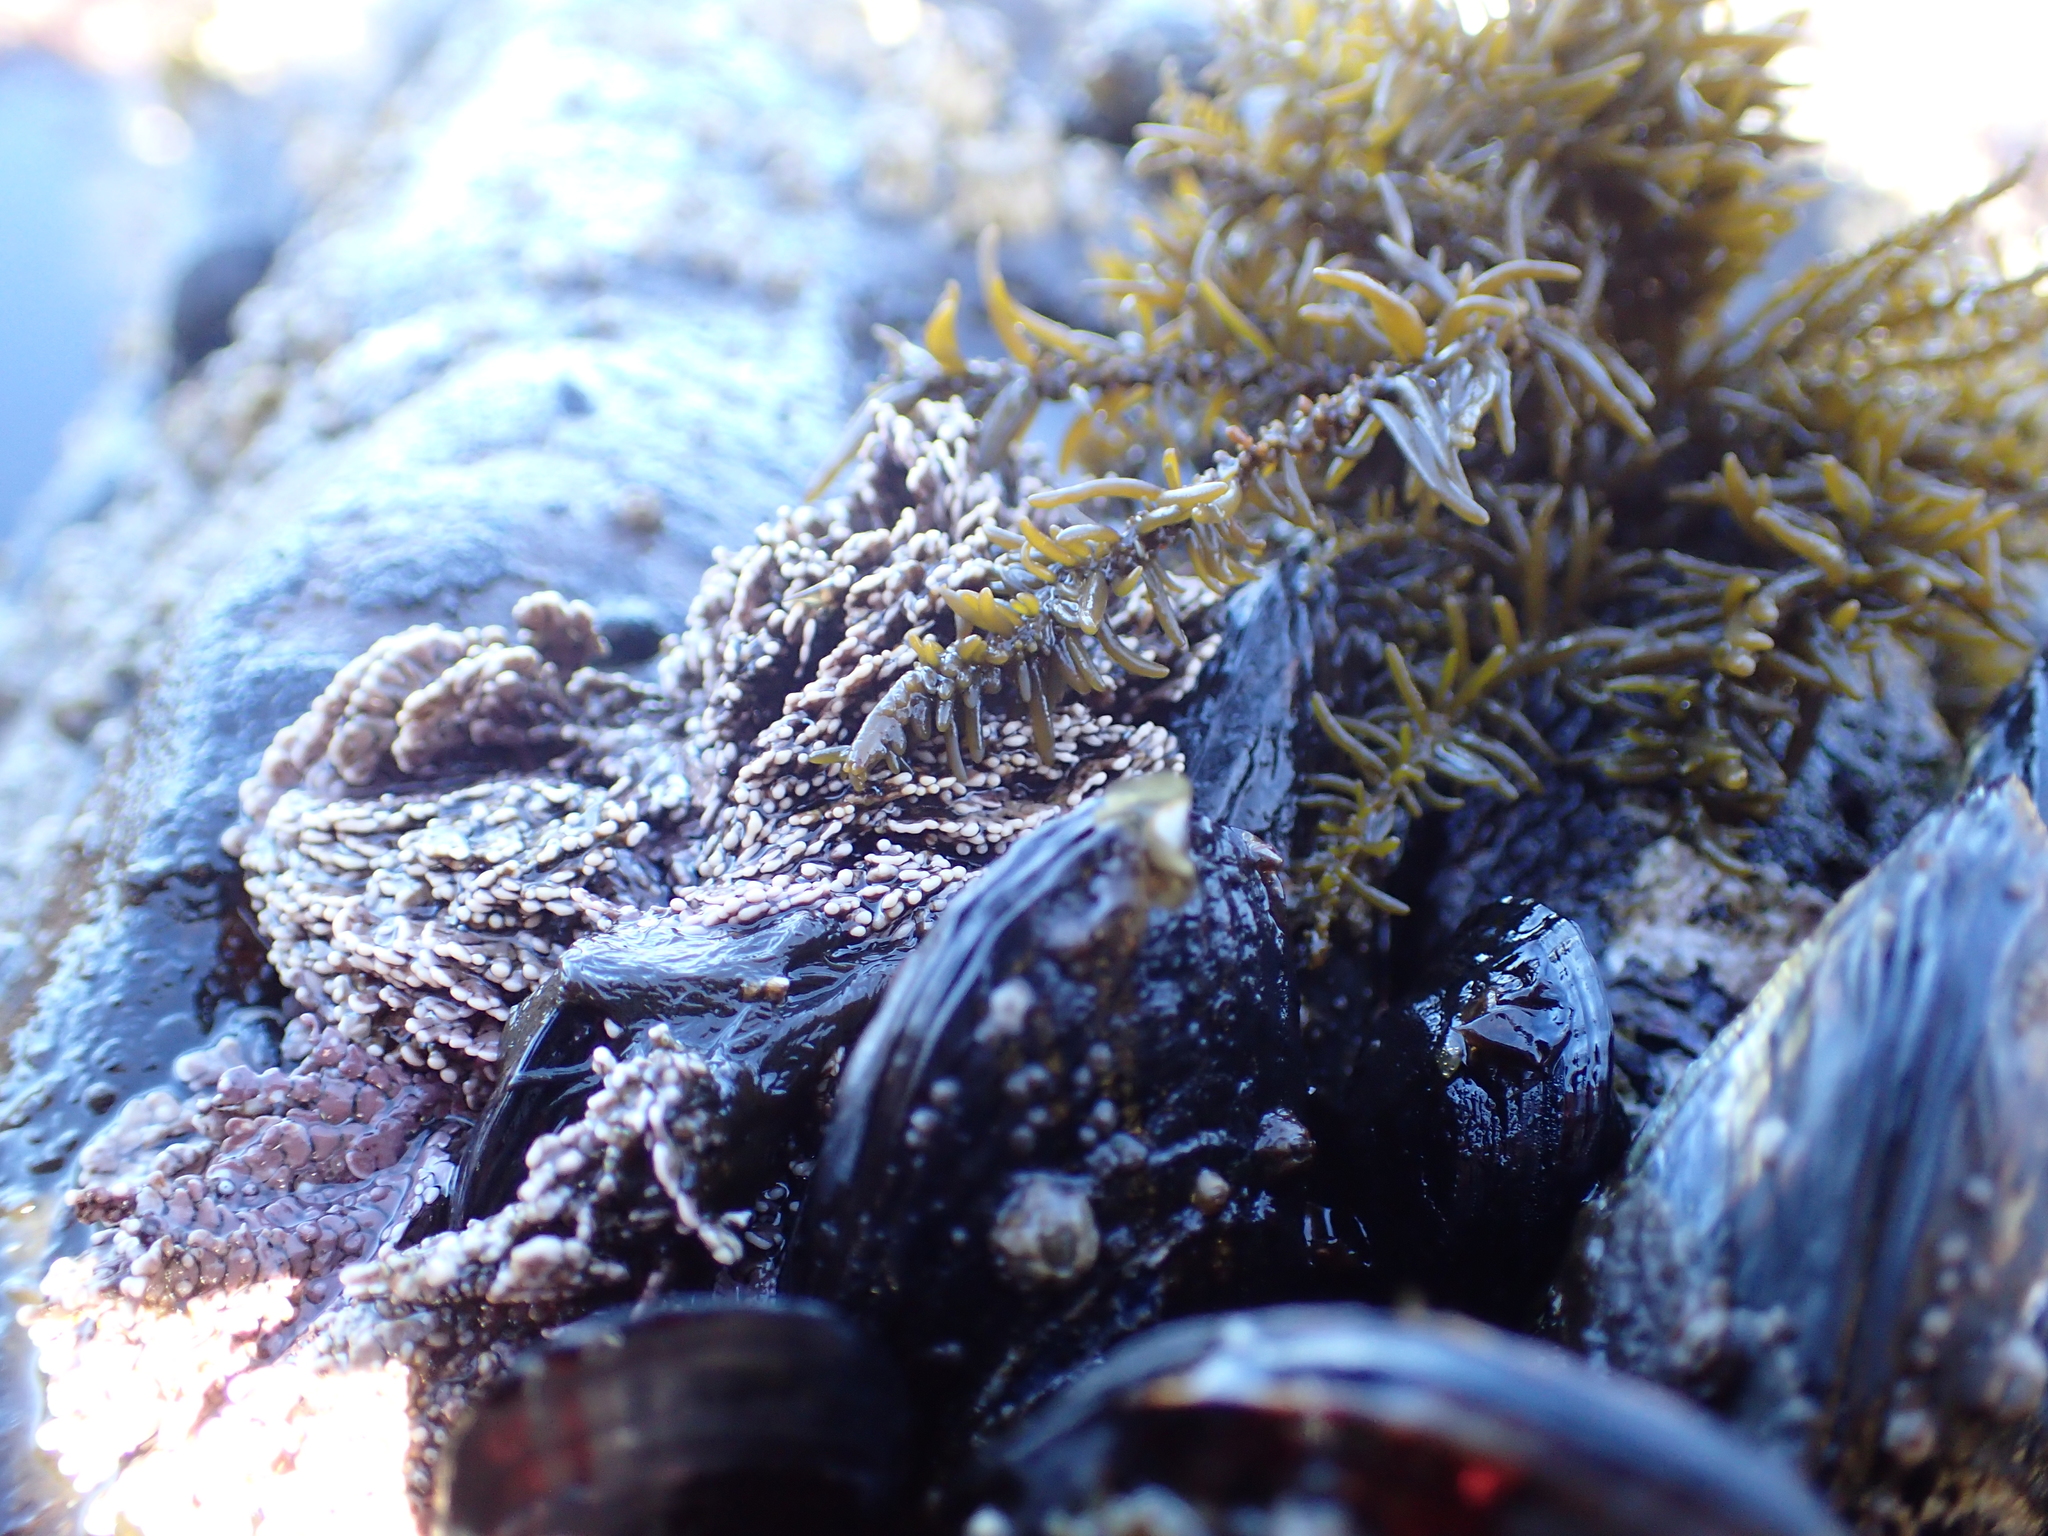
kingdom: Chromista
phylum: Ochrophyta
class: Phaeophyceae
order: Scytosiphonales
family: Scytosiphonaceae
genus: Analipus
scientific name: Analipus japonicus
